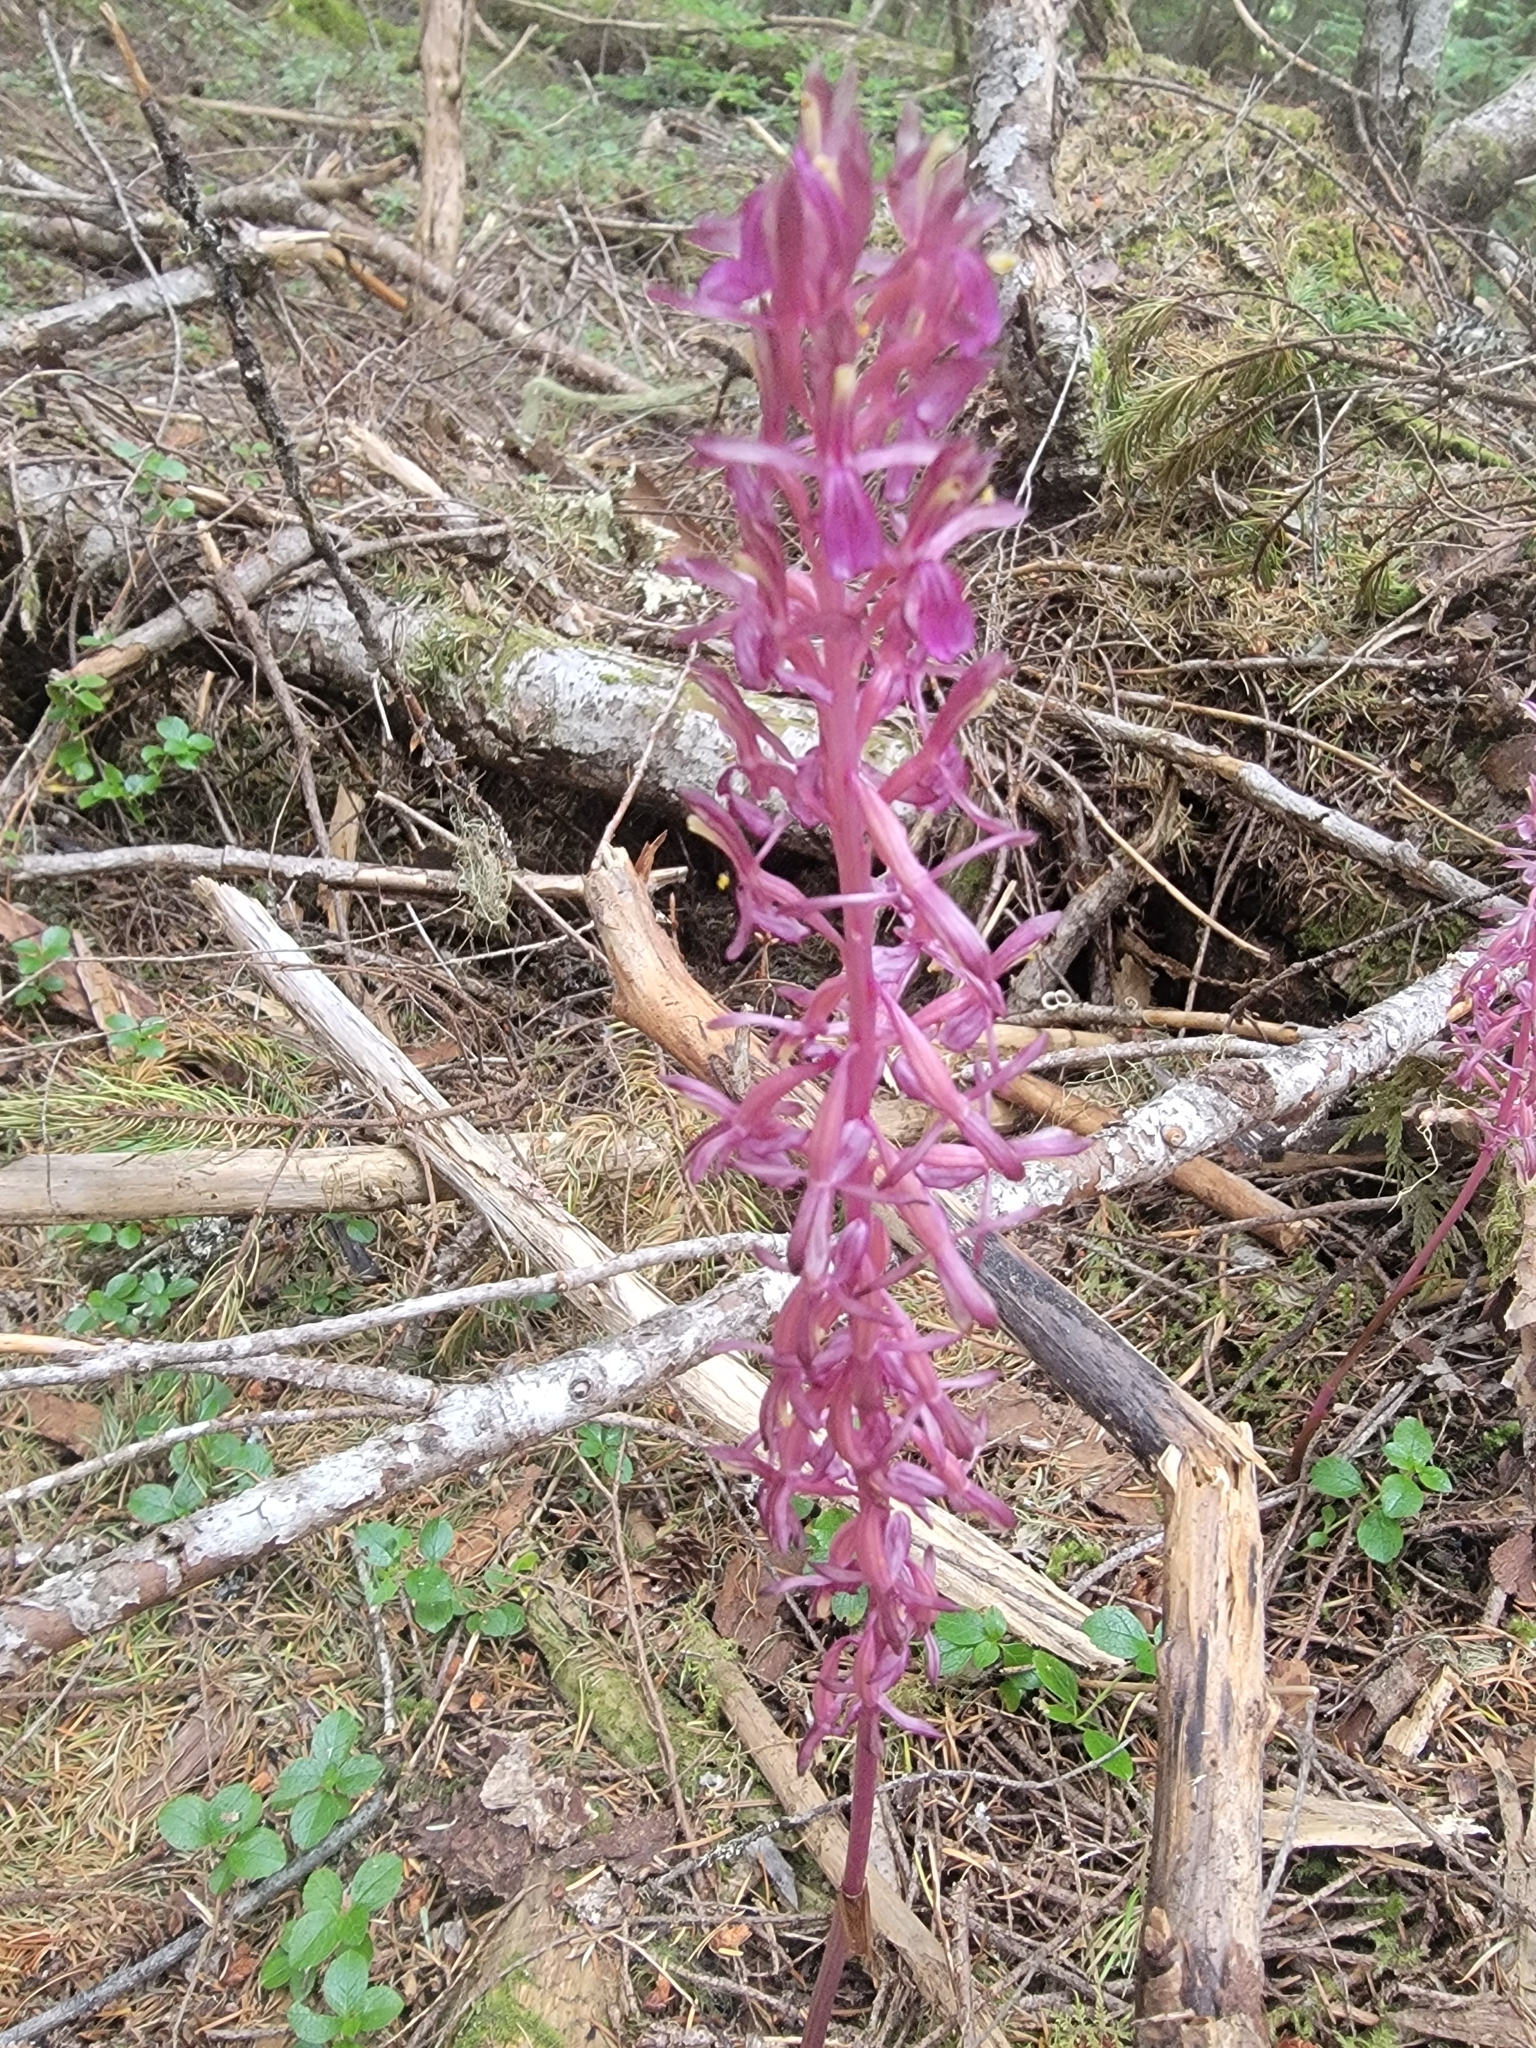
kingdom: Plantae
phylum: Tracheophyta
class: Liliopsida
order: Asparagales
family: Orchidaceae
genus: Corallorhiza
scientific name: Corallorhiza mertensiana
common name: Pacific coralroot
